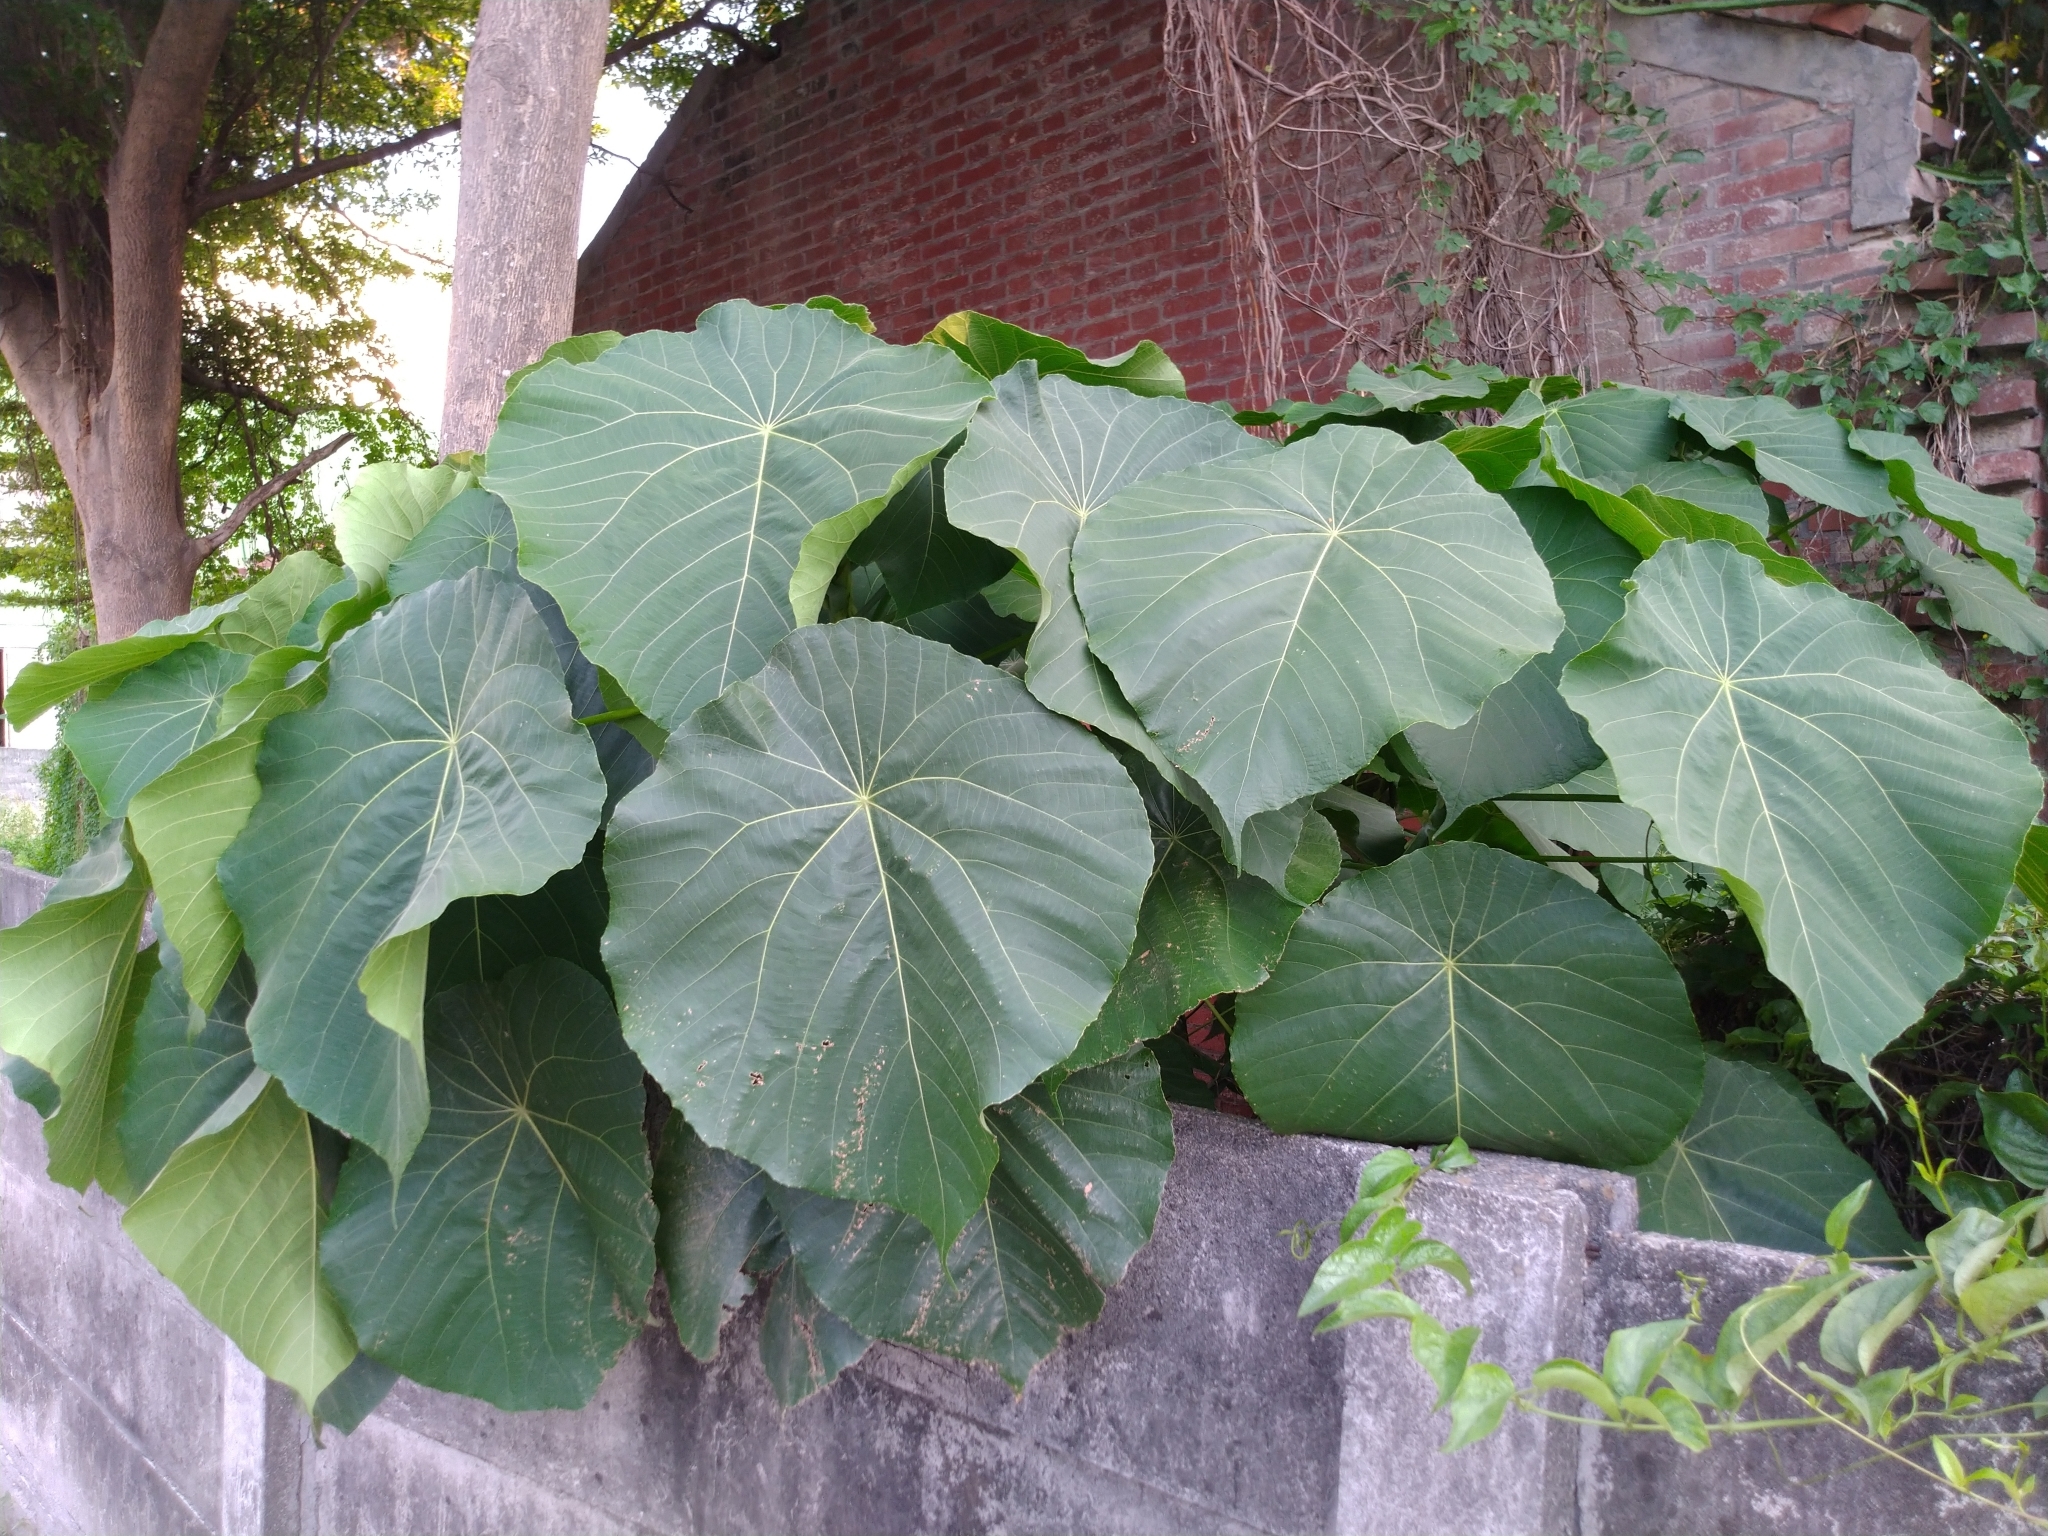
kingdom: Plantae
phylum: Tracheophyta
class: Magnoliopsida
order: Malpighiales
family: Euphorbiaceae
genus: Macaranga
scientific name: Macaranga tanarius
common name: Parasol leaf tree
